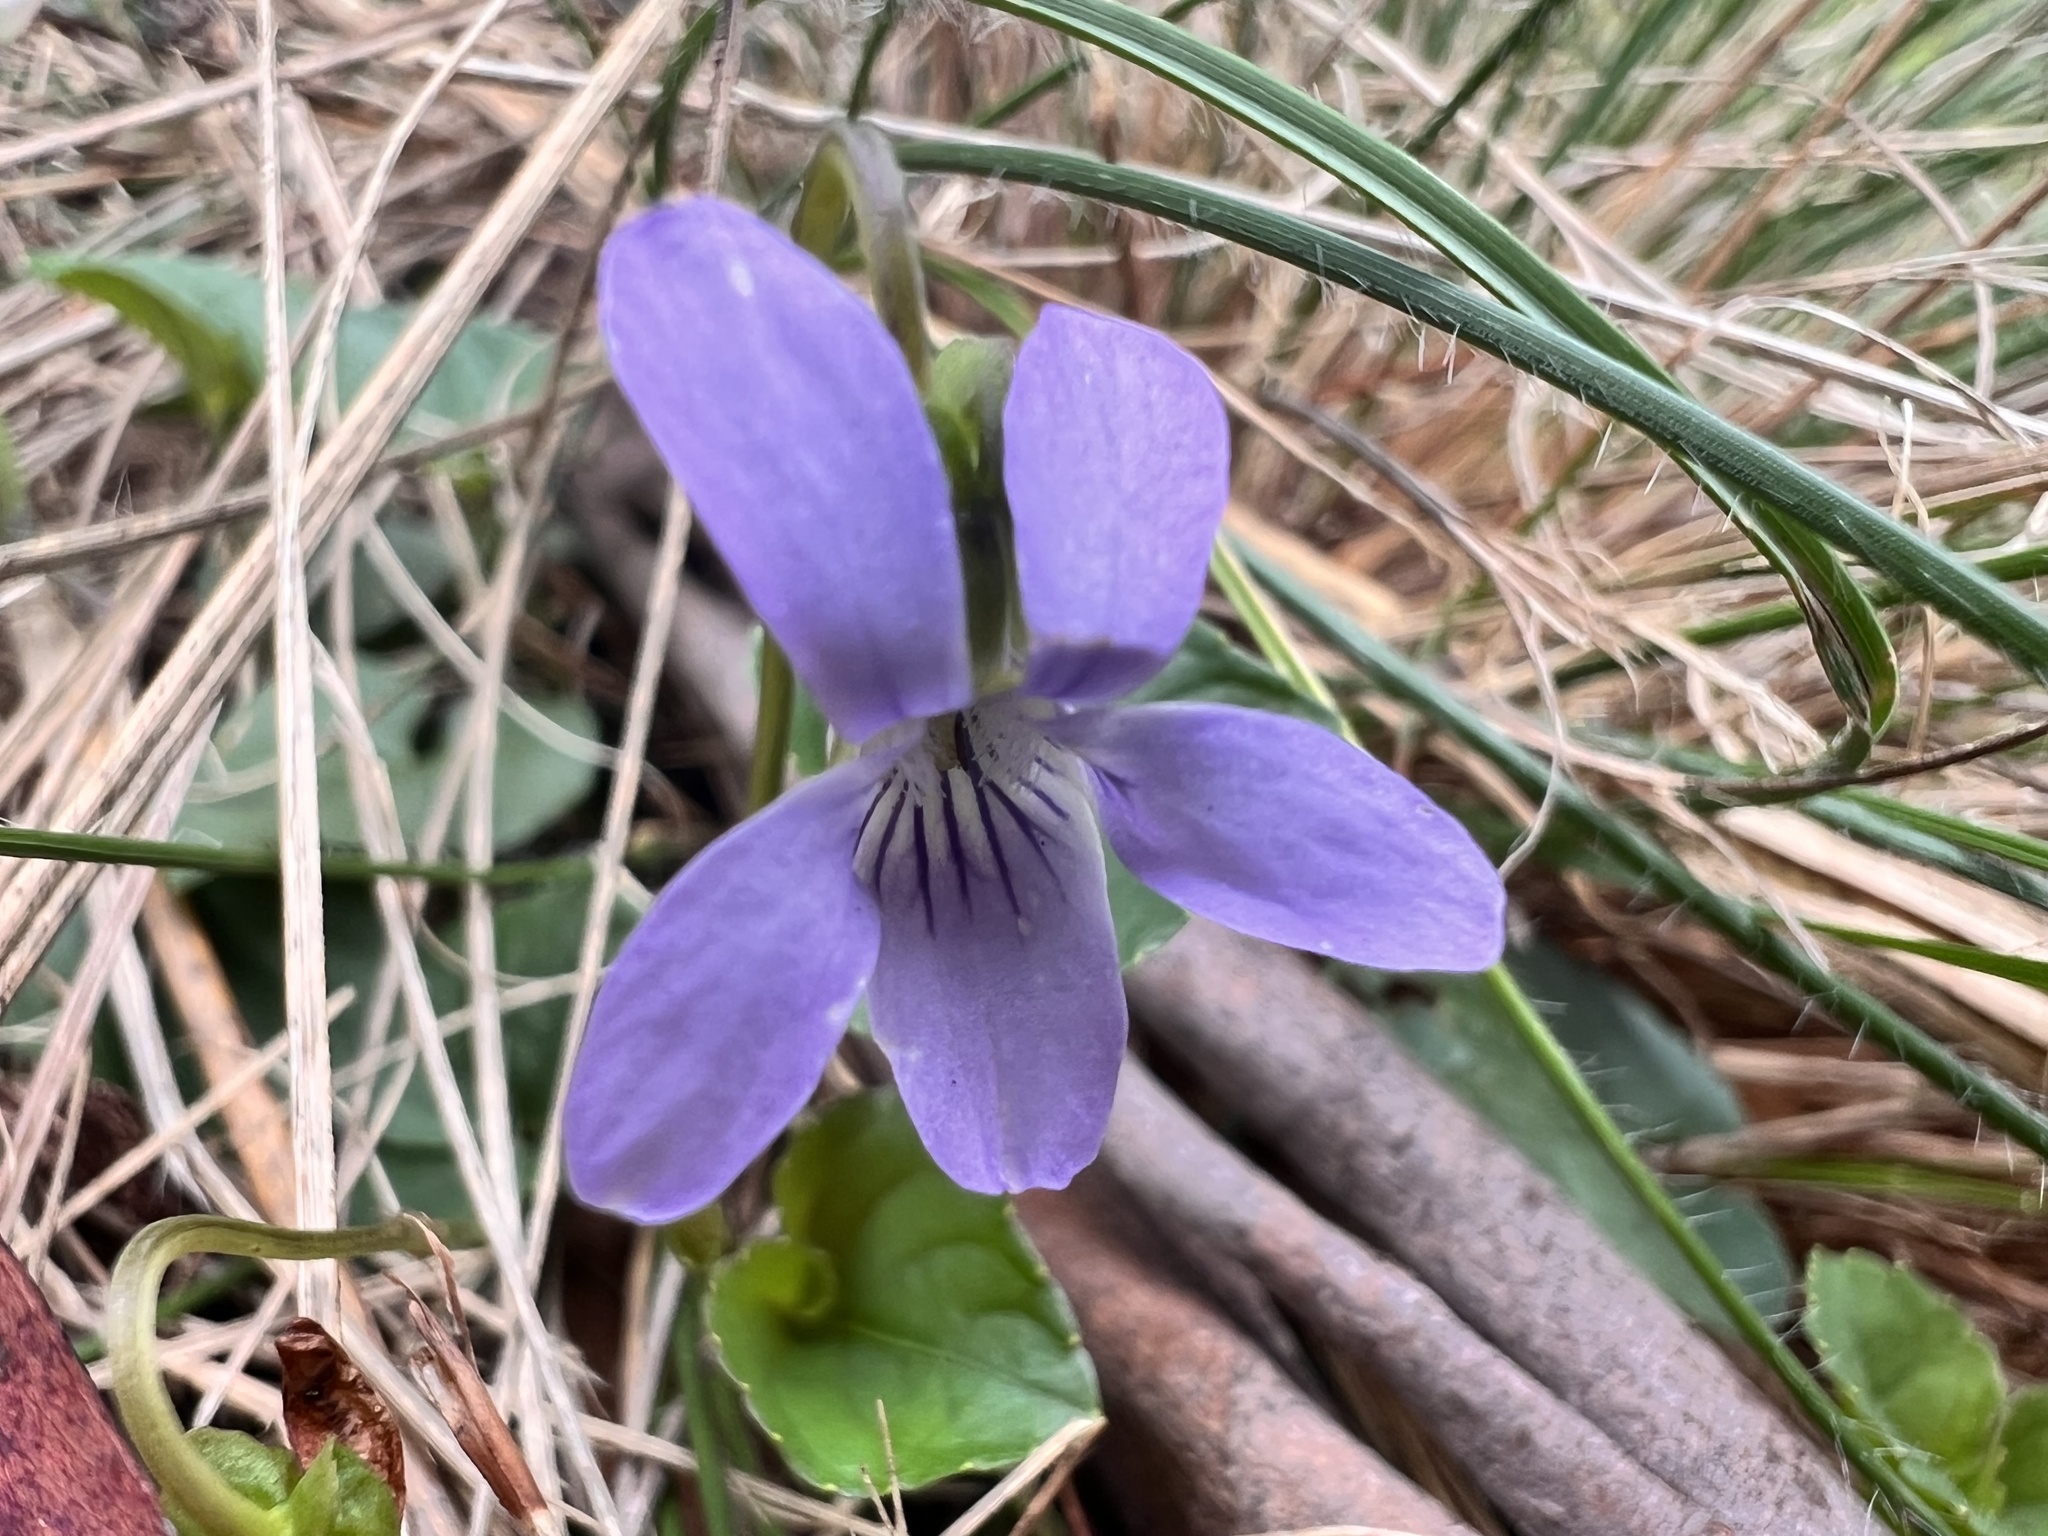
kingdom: Plantae
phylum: Tracheophyta
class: Magnoliopsida
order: Malpighiales
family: Violaceae
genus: Viola
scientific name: Viola riviniana
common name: Common dog-violet
